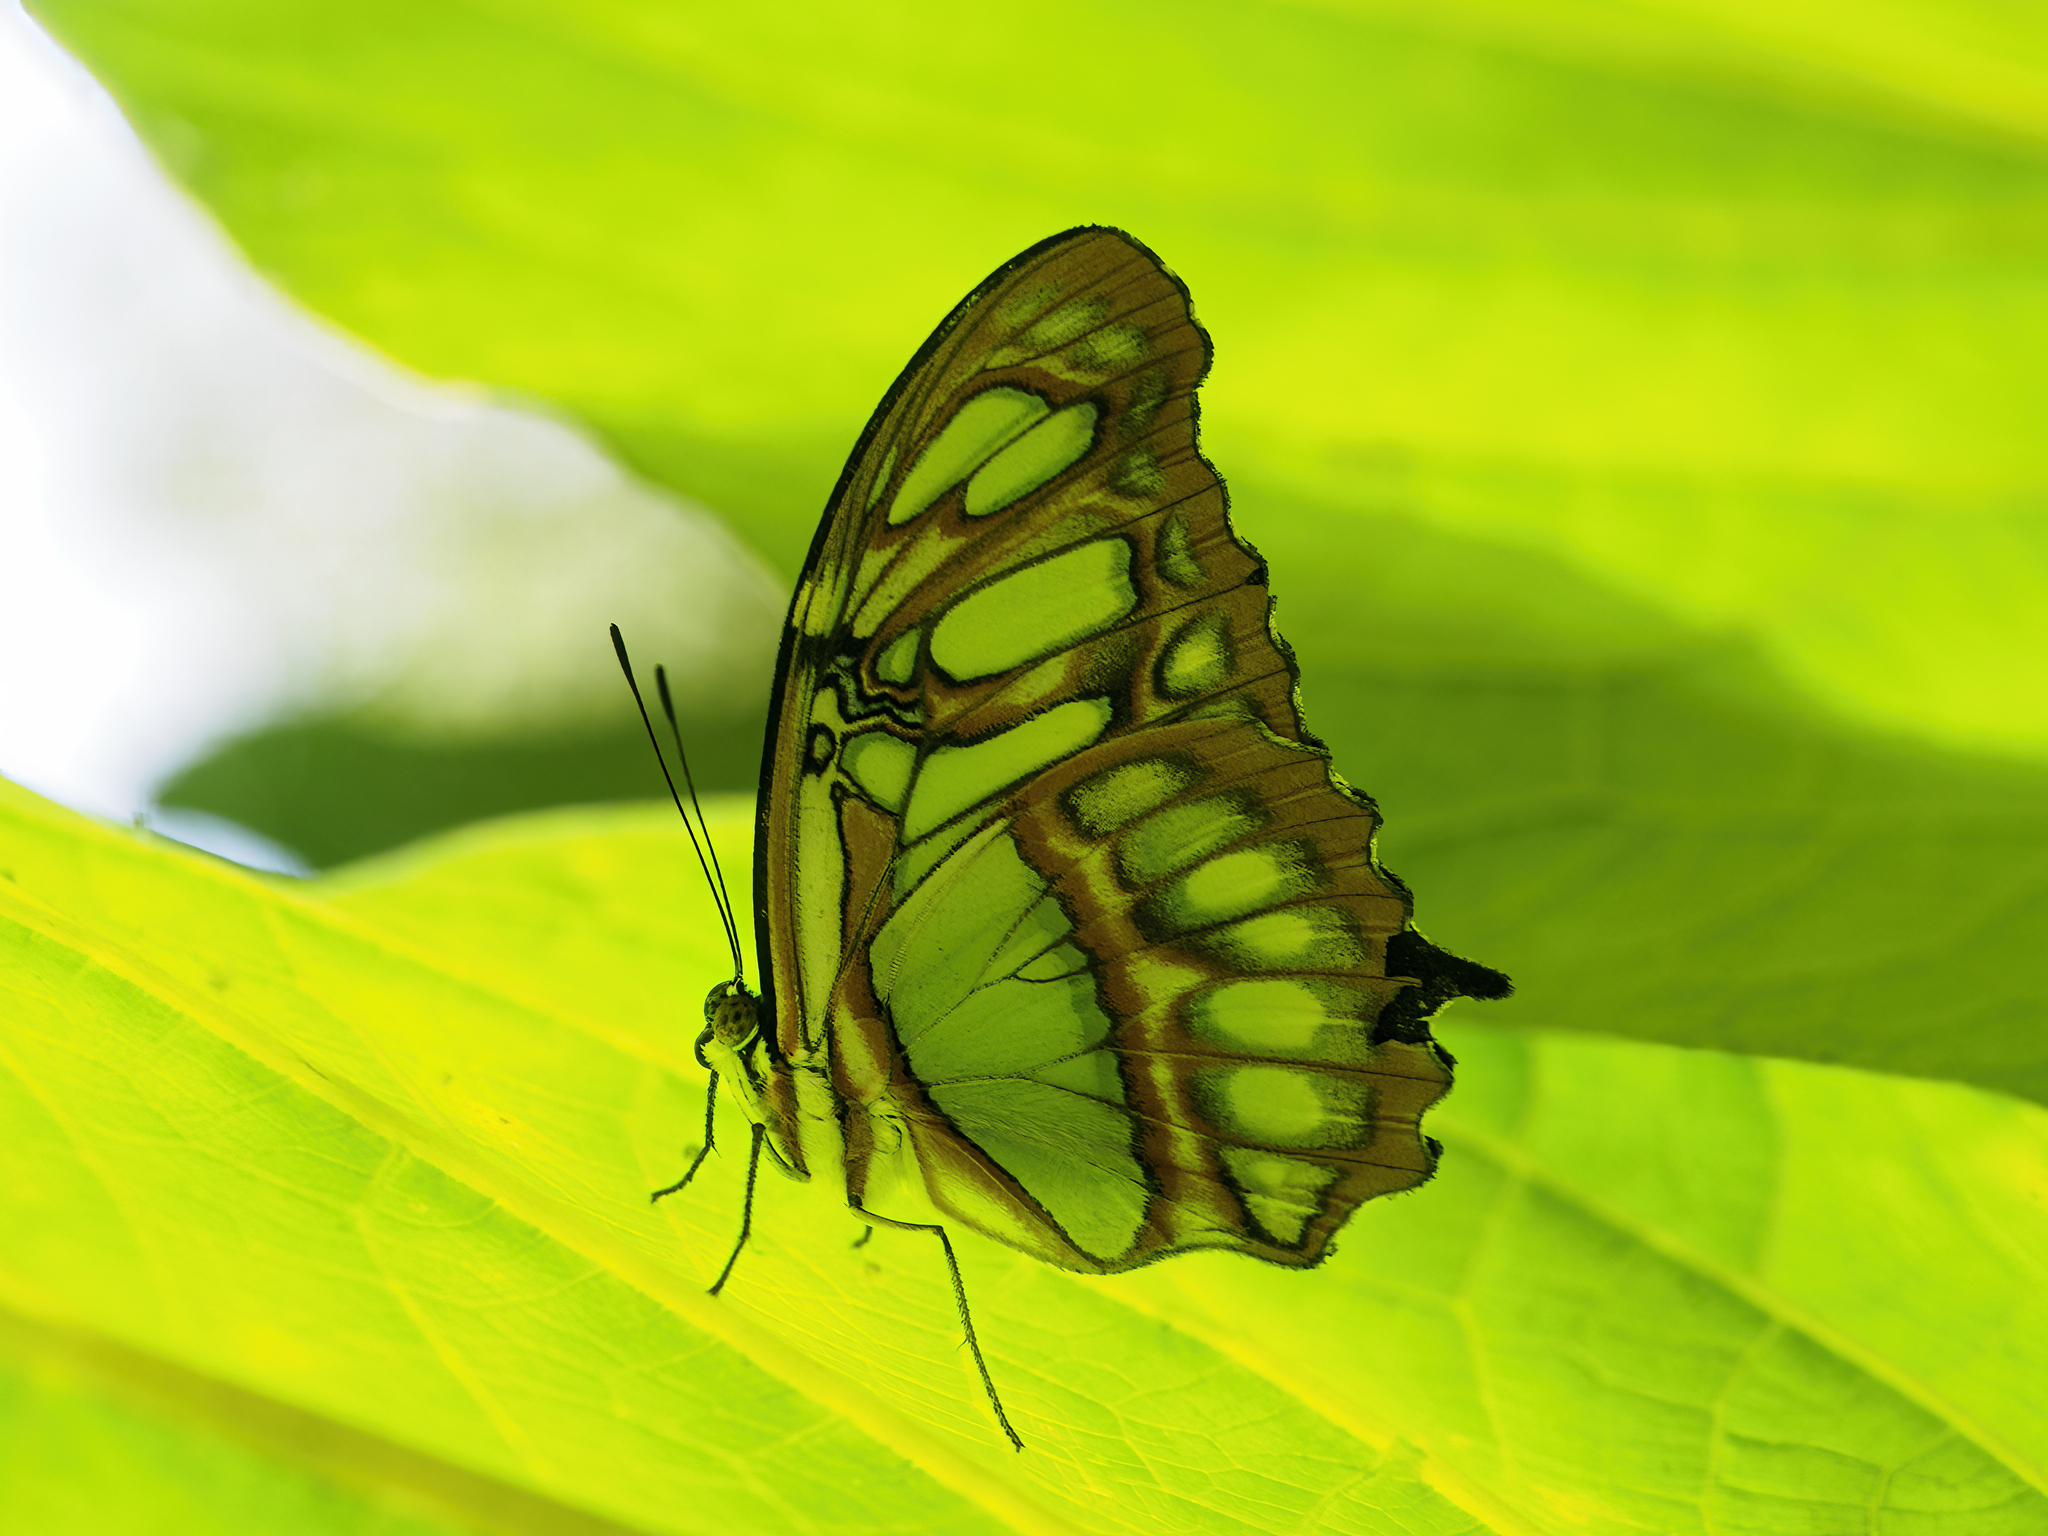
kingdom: Animalia
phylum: Arthropoda
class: Insecta
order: Lepidoptera
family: Nymphalidae
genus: Siproeta
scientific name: Siproeta stelenes
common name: Malachite
